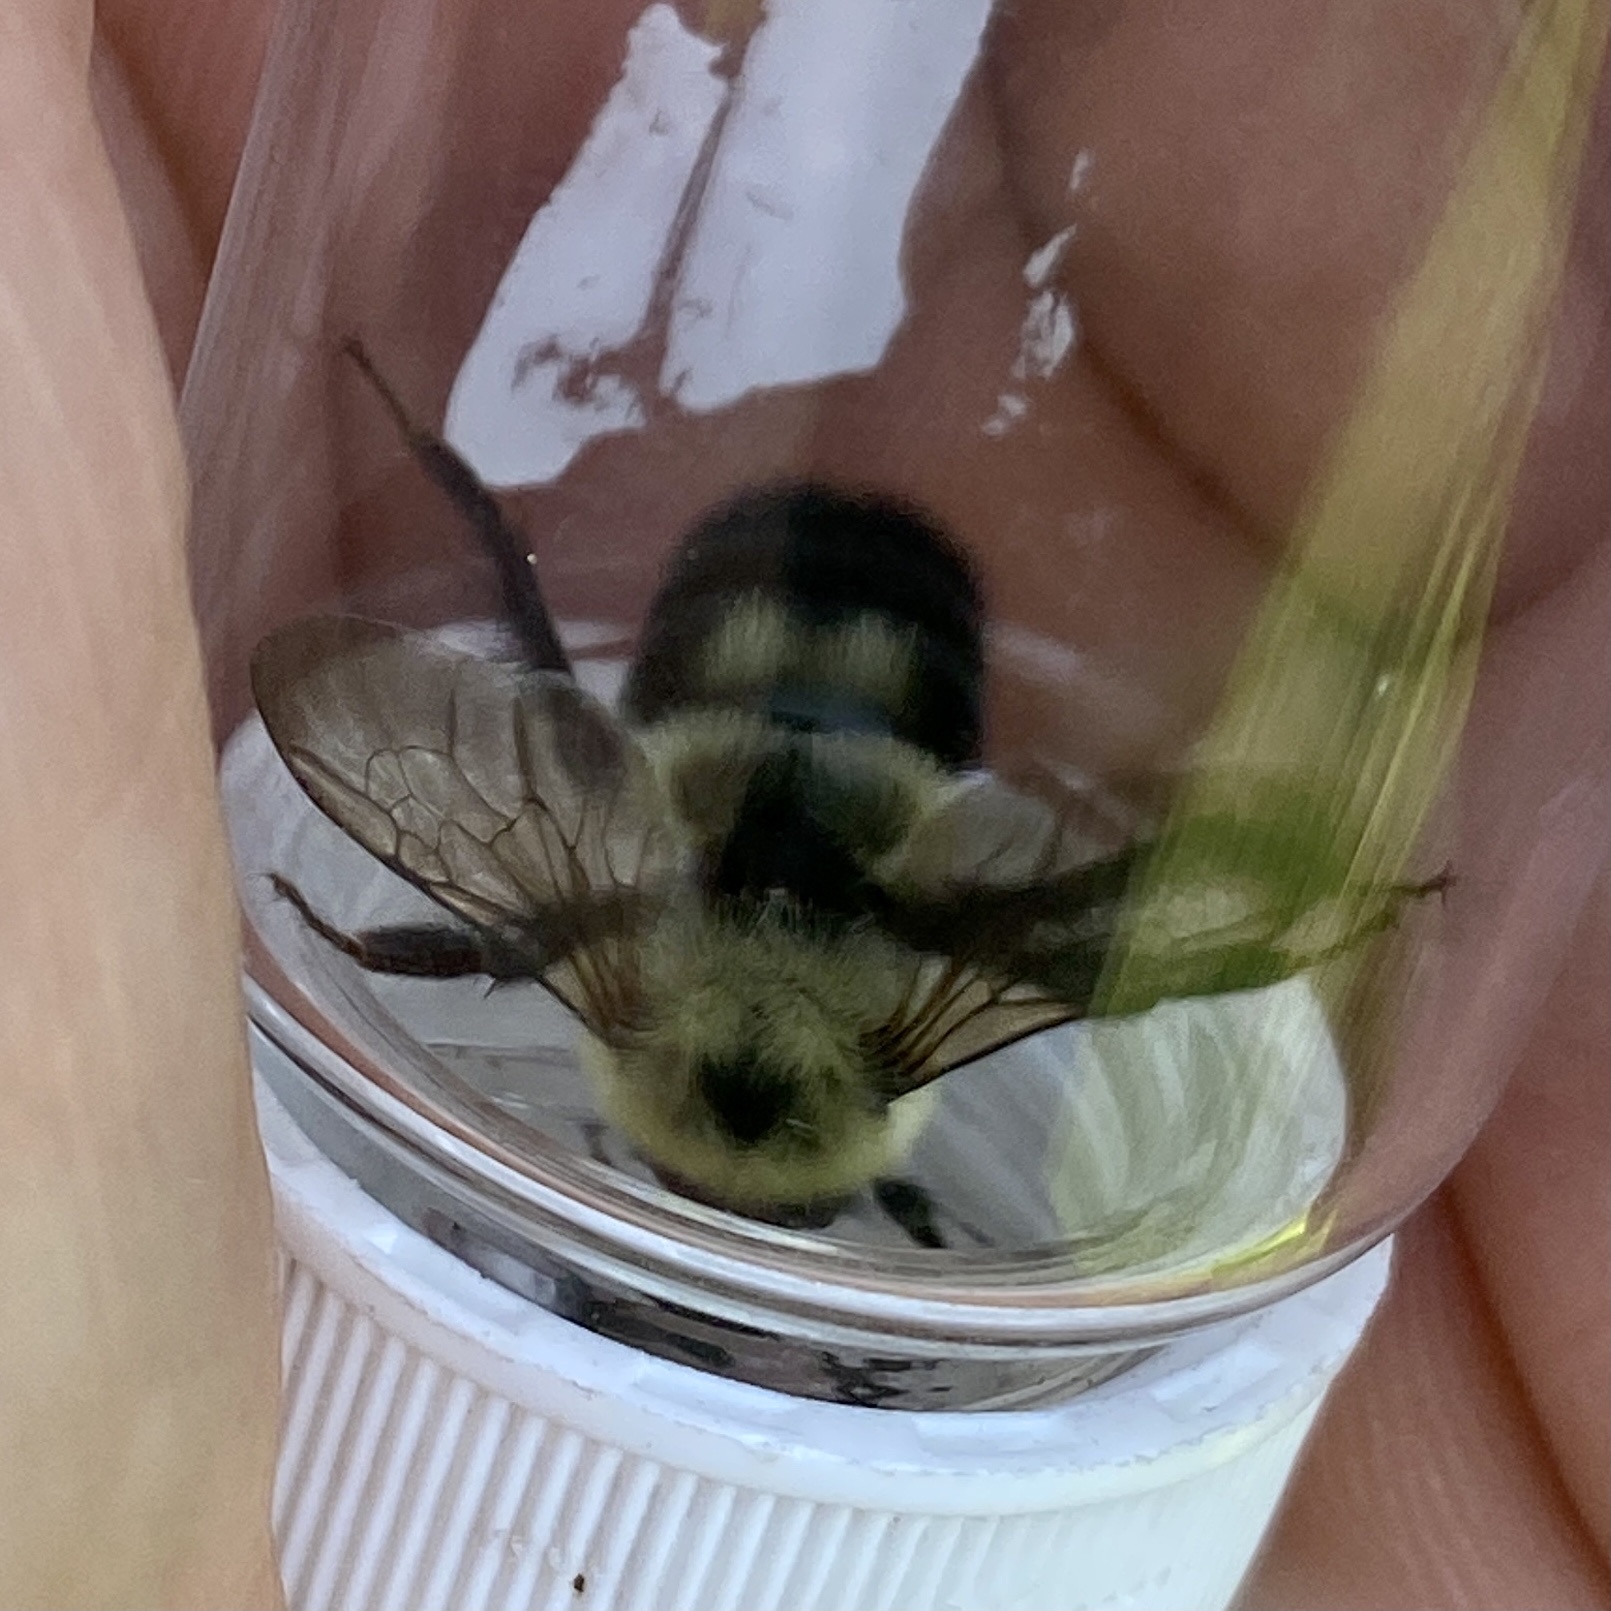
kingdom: Animalia
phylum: Arthropoda
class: Insecta
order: Hymenoptera
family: Apidae
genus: Bombus
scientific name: Bombus bimaculatus
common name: Two-spotted bumble bee
